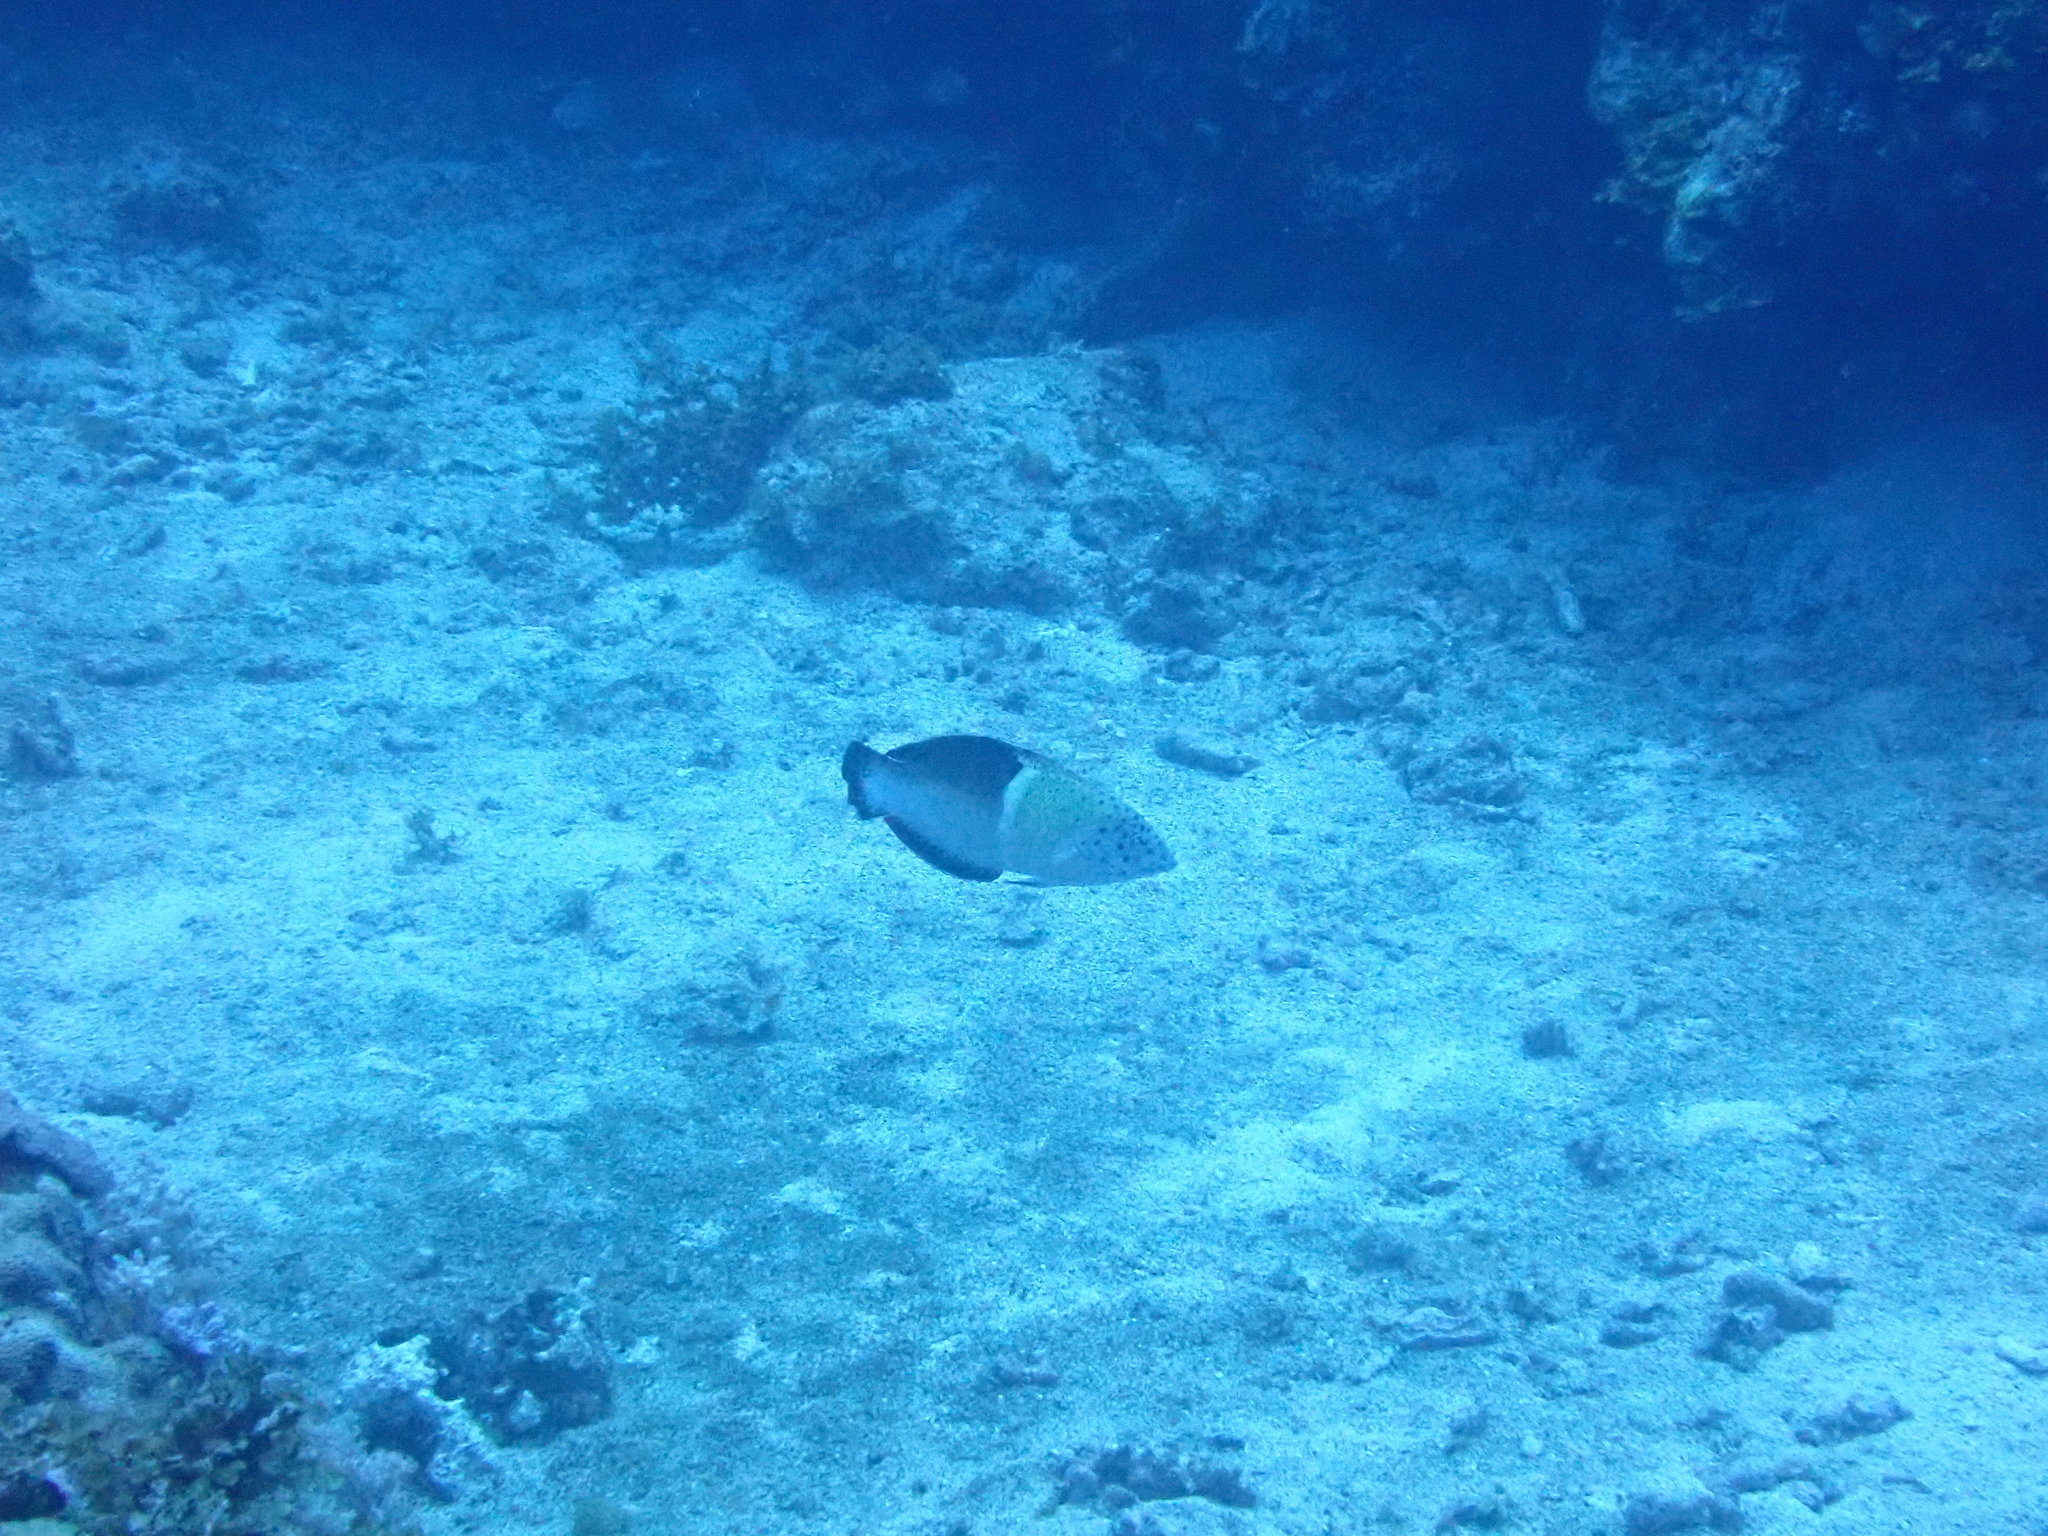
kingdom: Animalia
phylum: Chordata
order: Perciformes
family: Labridae
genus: Coris
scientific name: Coris aygula
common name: Clown coris
